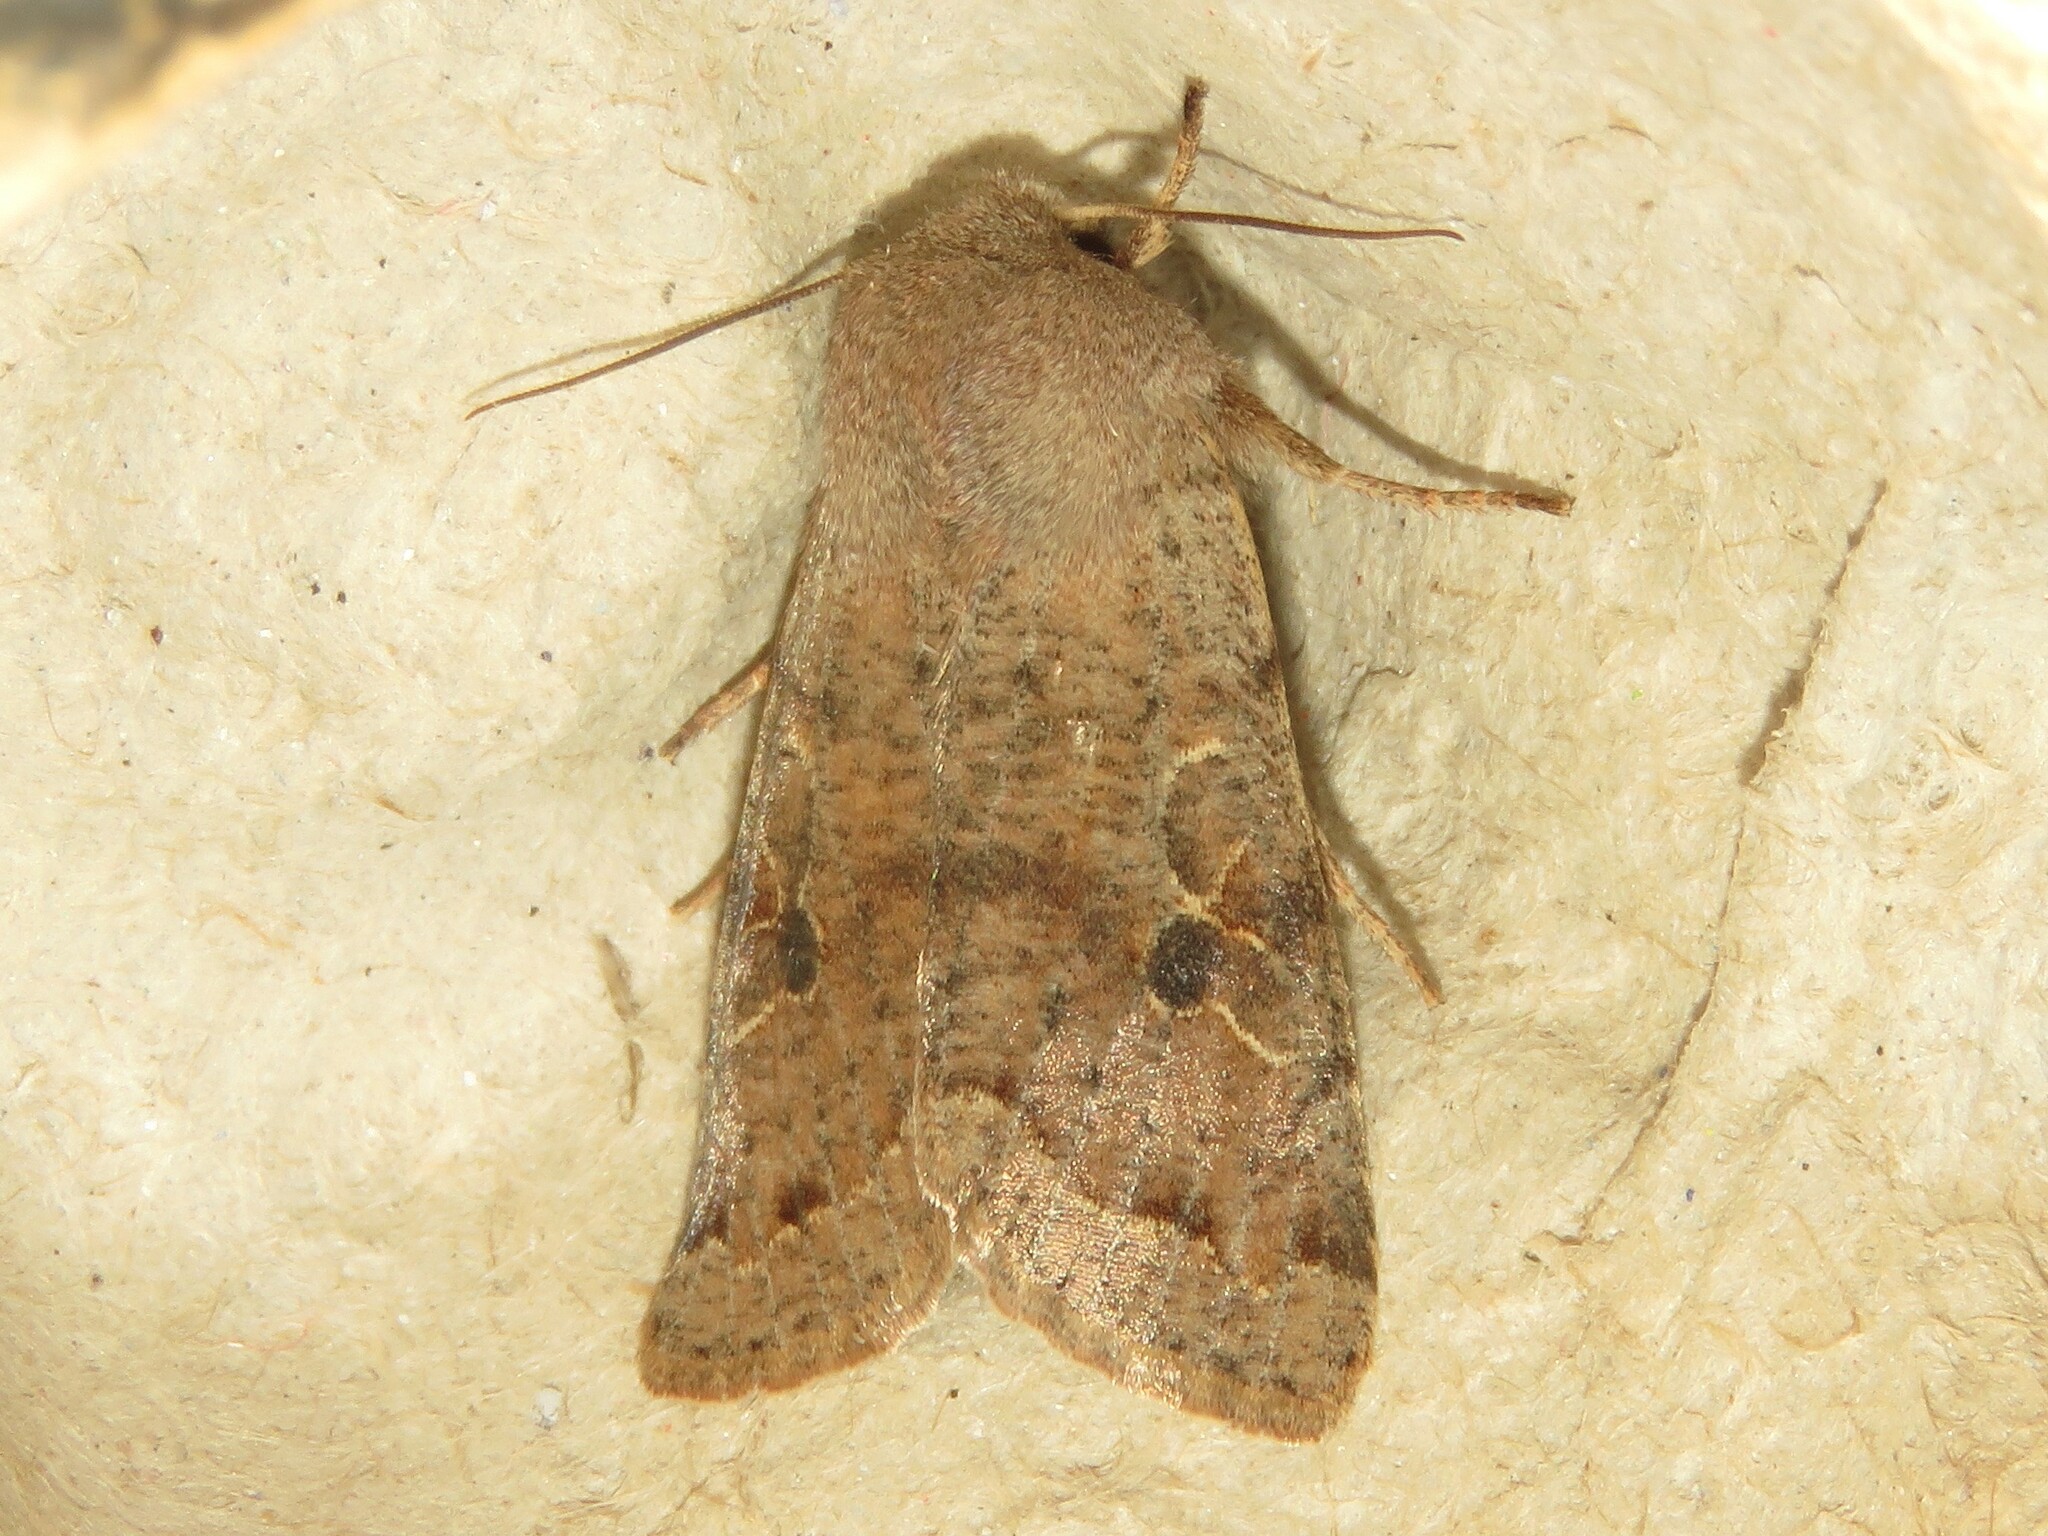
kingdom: Animalia
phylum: Arthropoda
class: Insecta
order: Lepidoptera
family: Noctuidae
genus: Orthosia
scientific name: Orthosia hibisci
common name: Green fruitworm
